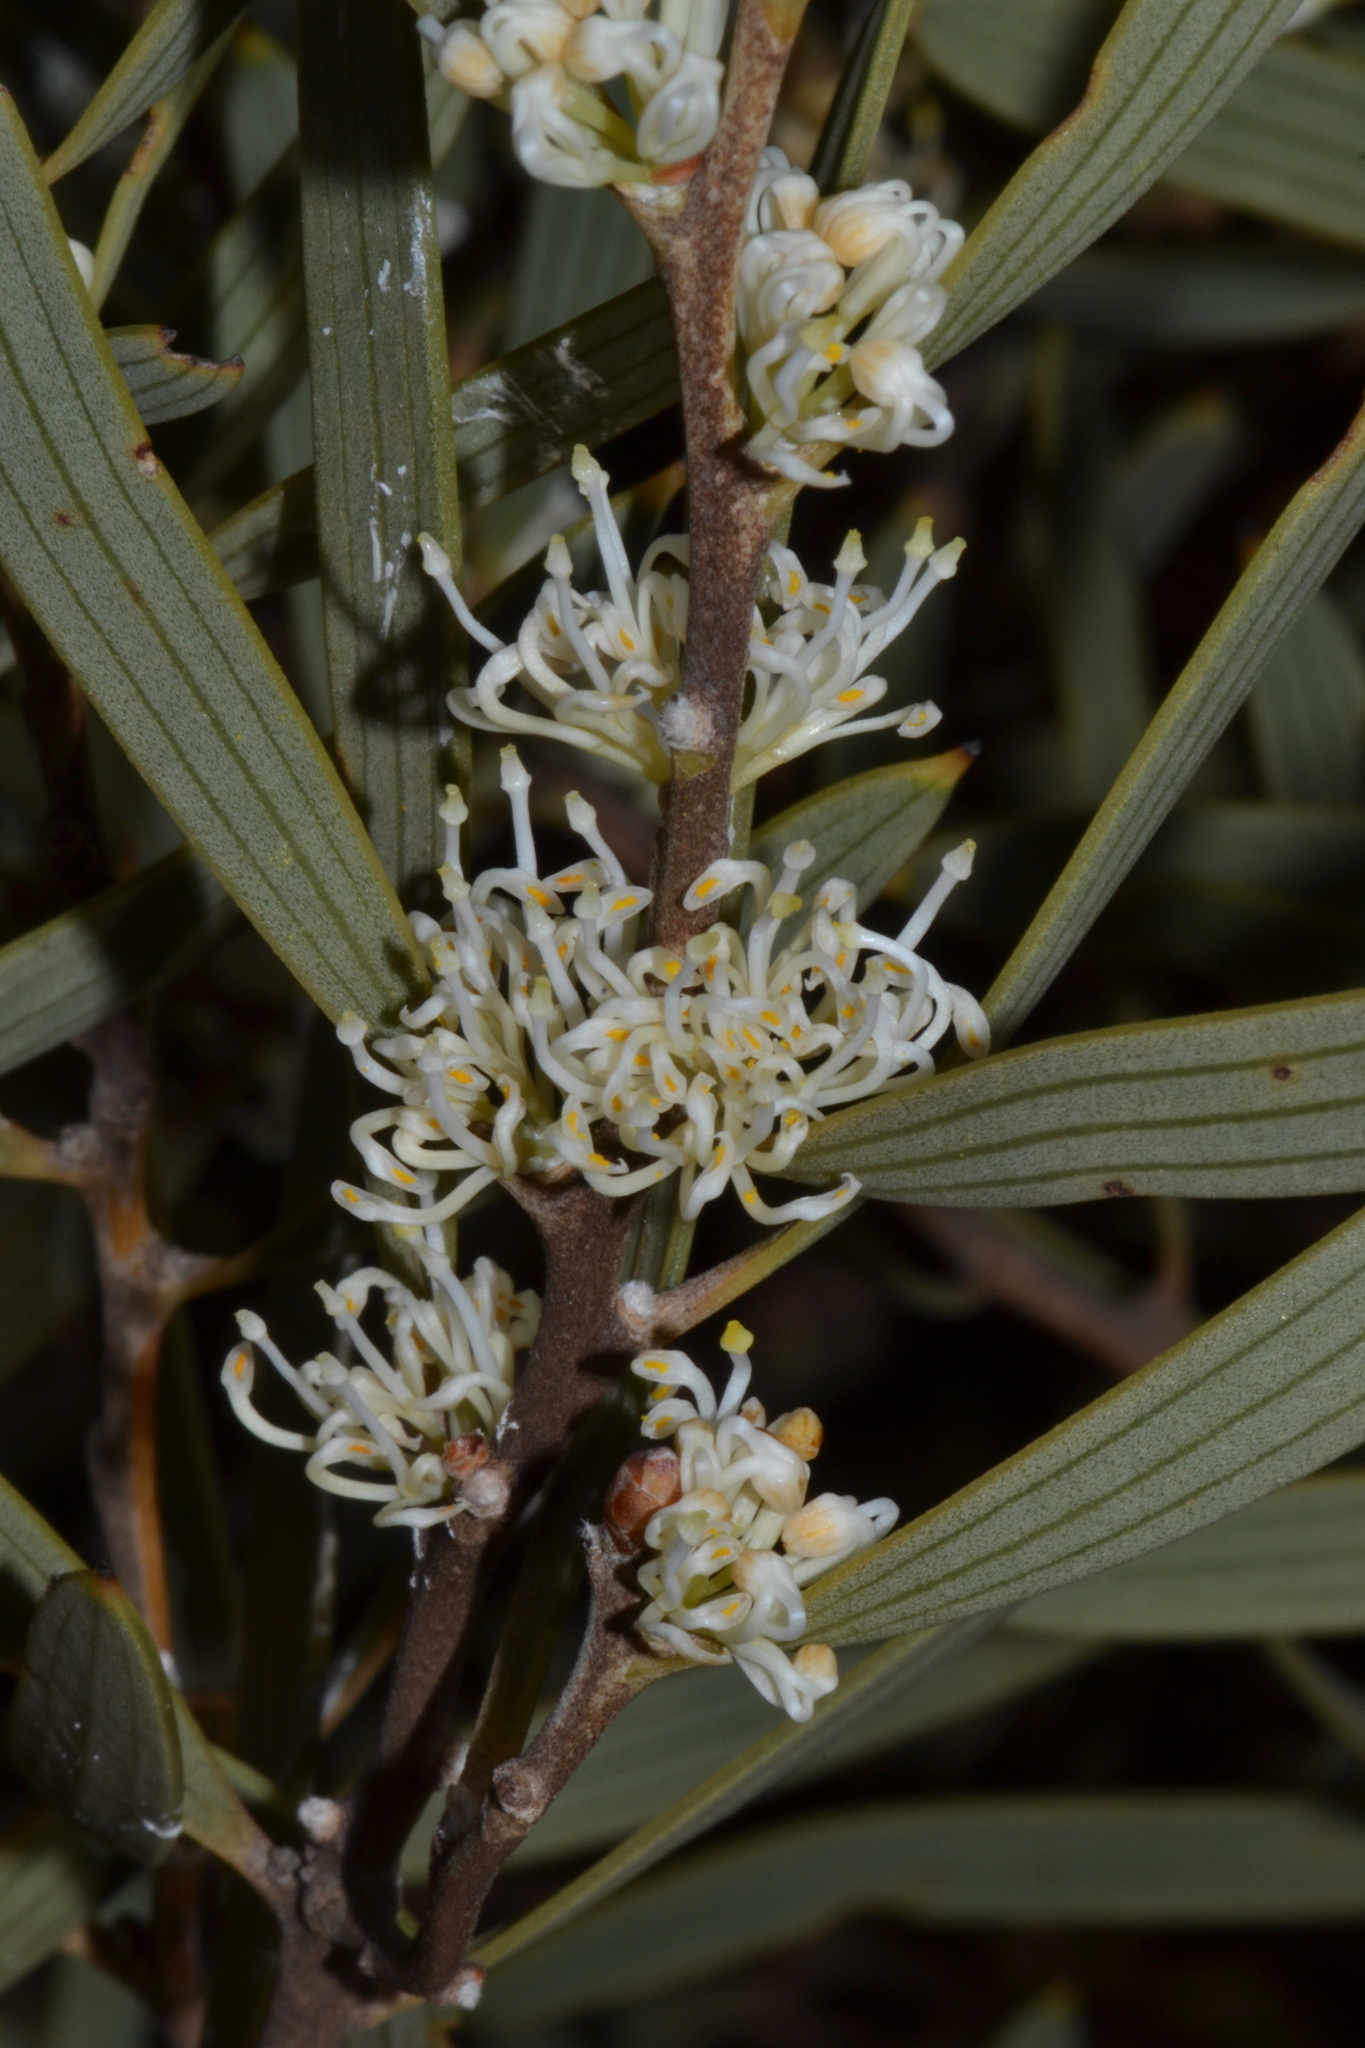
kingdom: Plantae
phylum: Tracheophyta
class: Magnoliopsida
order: Proteales
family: Proteaceae
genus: Hakea
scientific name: Hakea cygna
